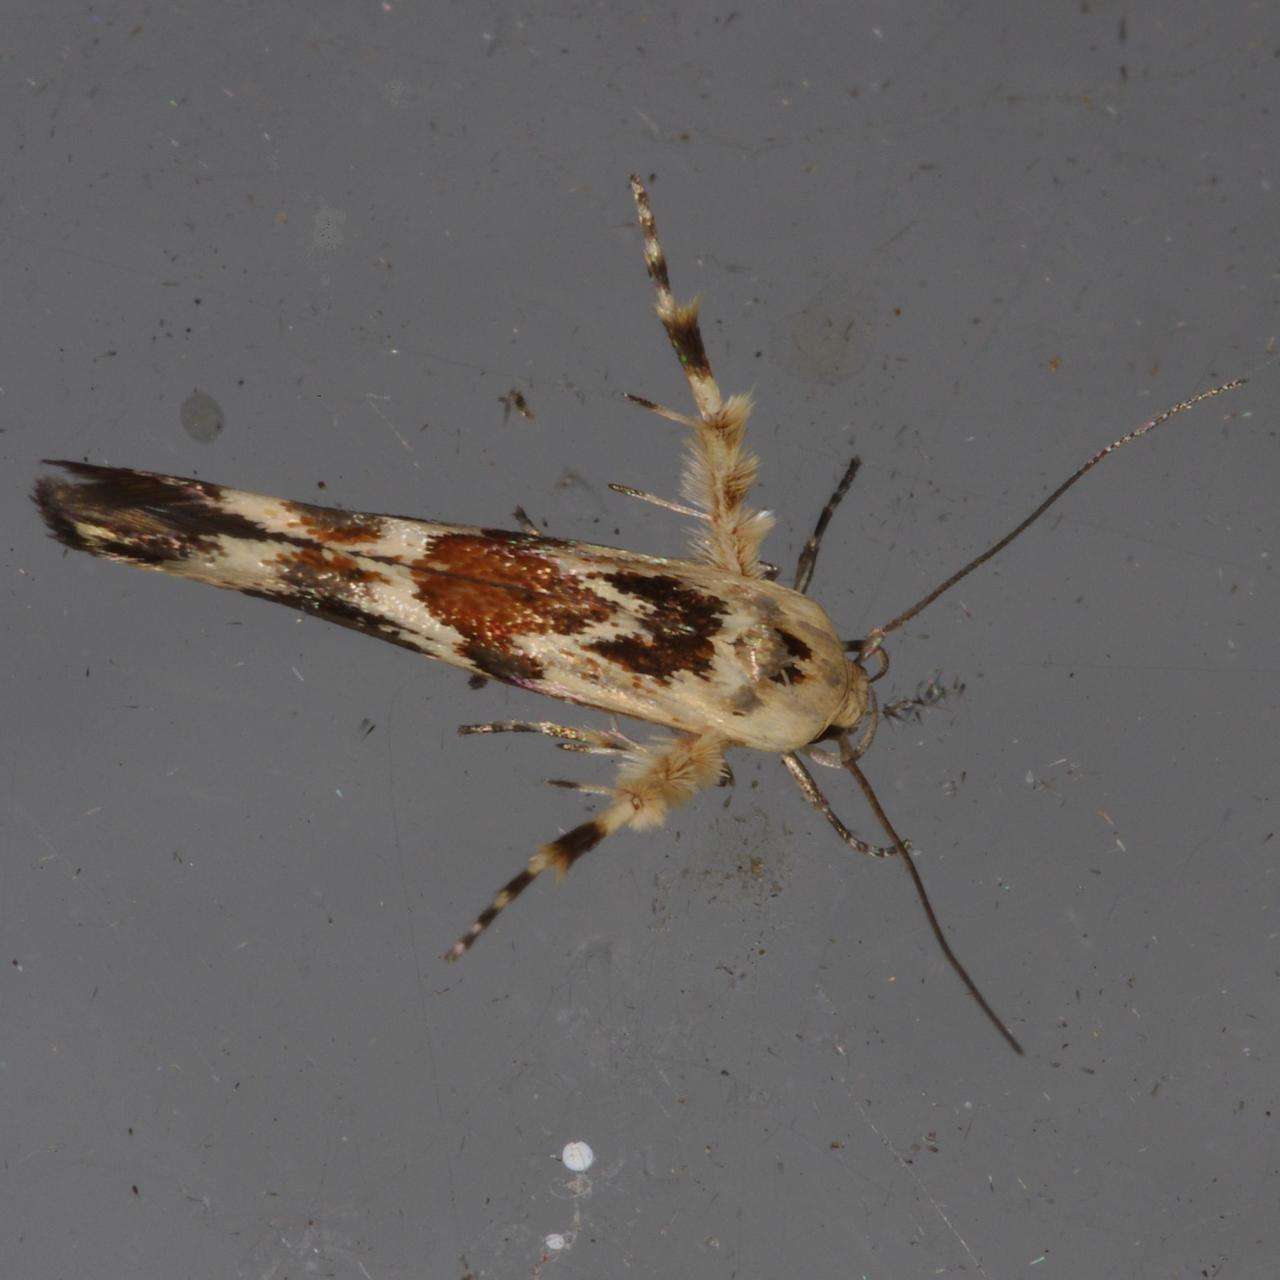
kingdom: Animalia
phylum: Arthropoda
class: Insecta
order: Lepidoptera
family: Stathmopodidae
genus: Stathmopoda
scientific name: Stathmopoda melanochra
